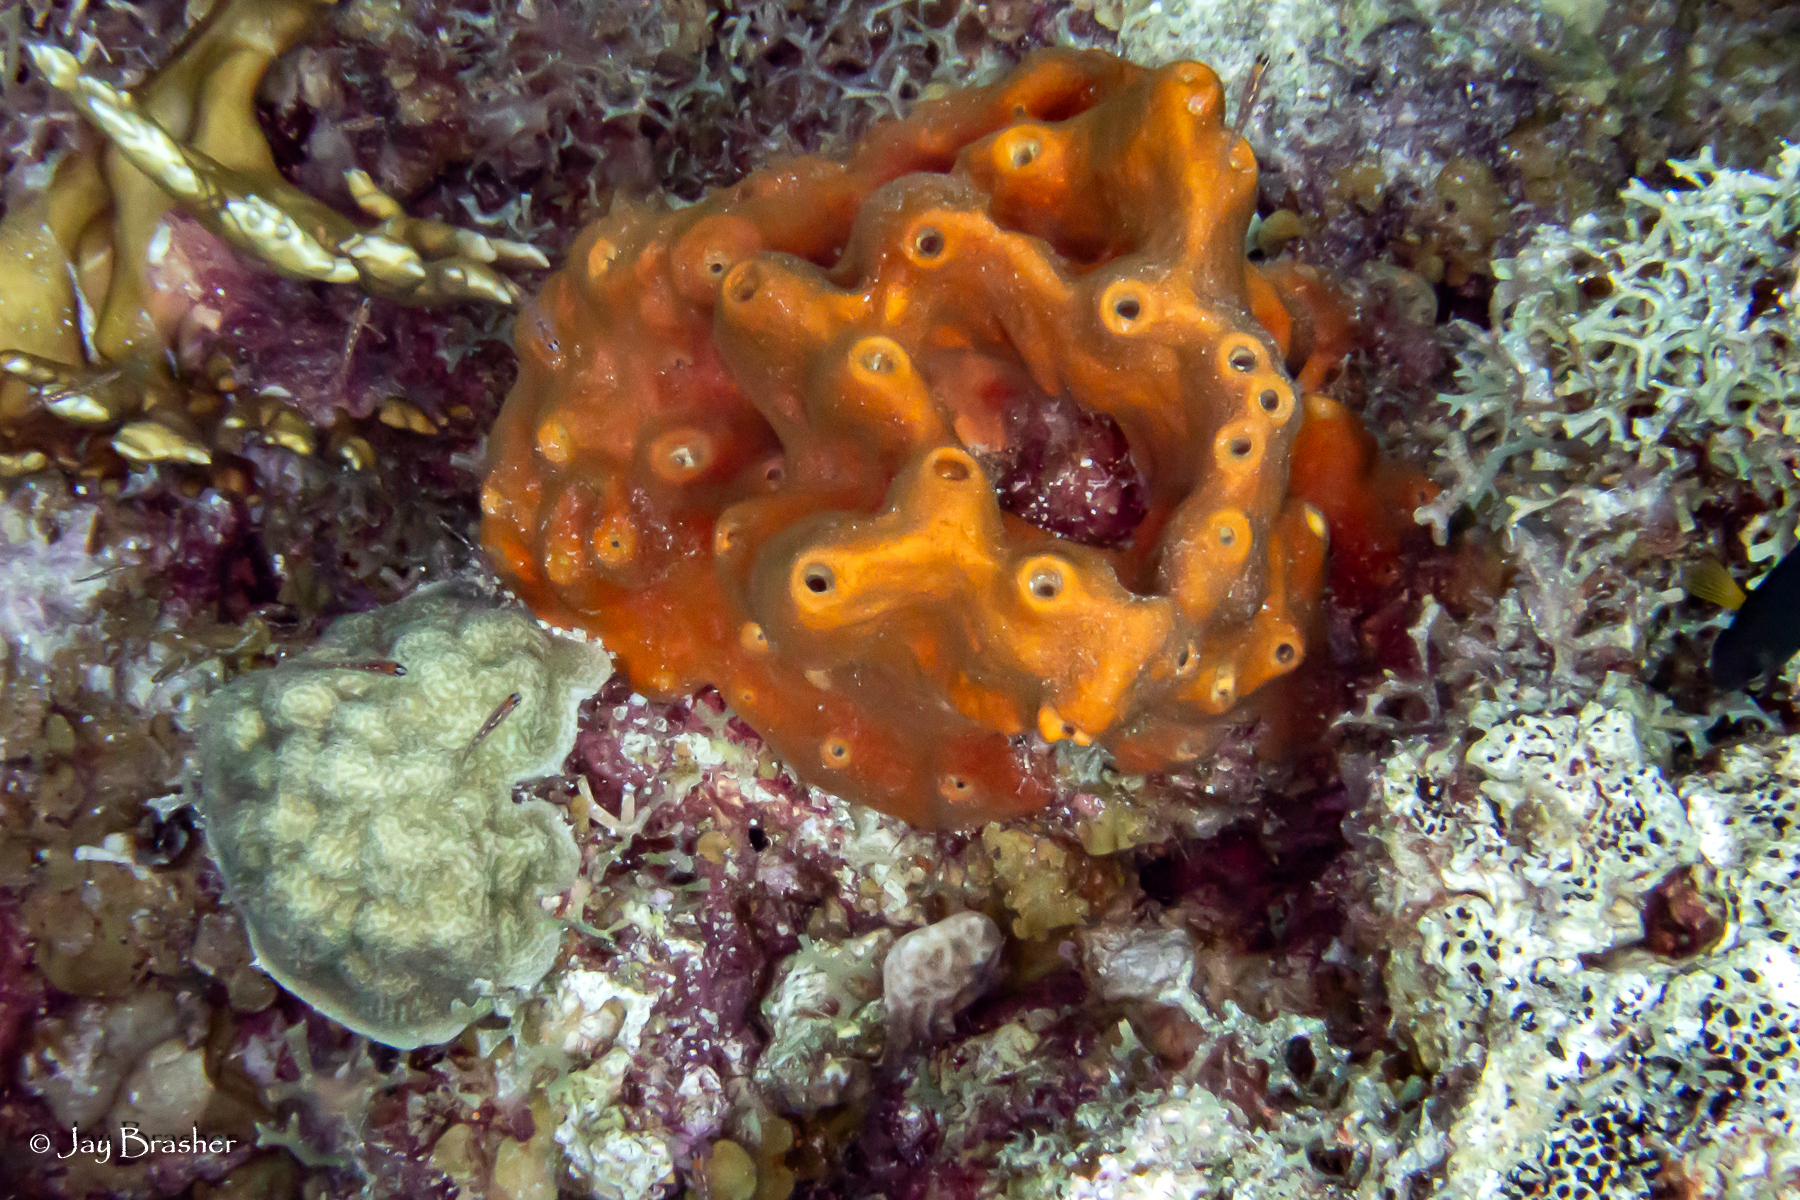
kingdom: Animalia
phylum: Porifera
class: Demospongiae
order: Clionaida
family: Clionaidae
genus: Cliona
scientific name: Cliona aprica
